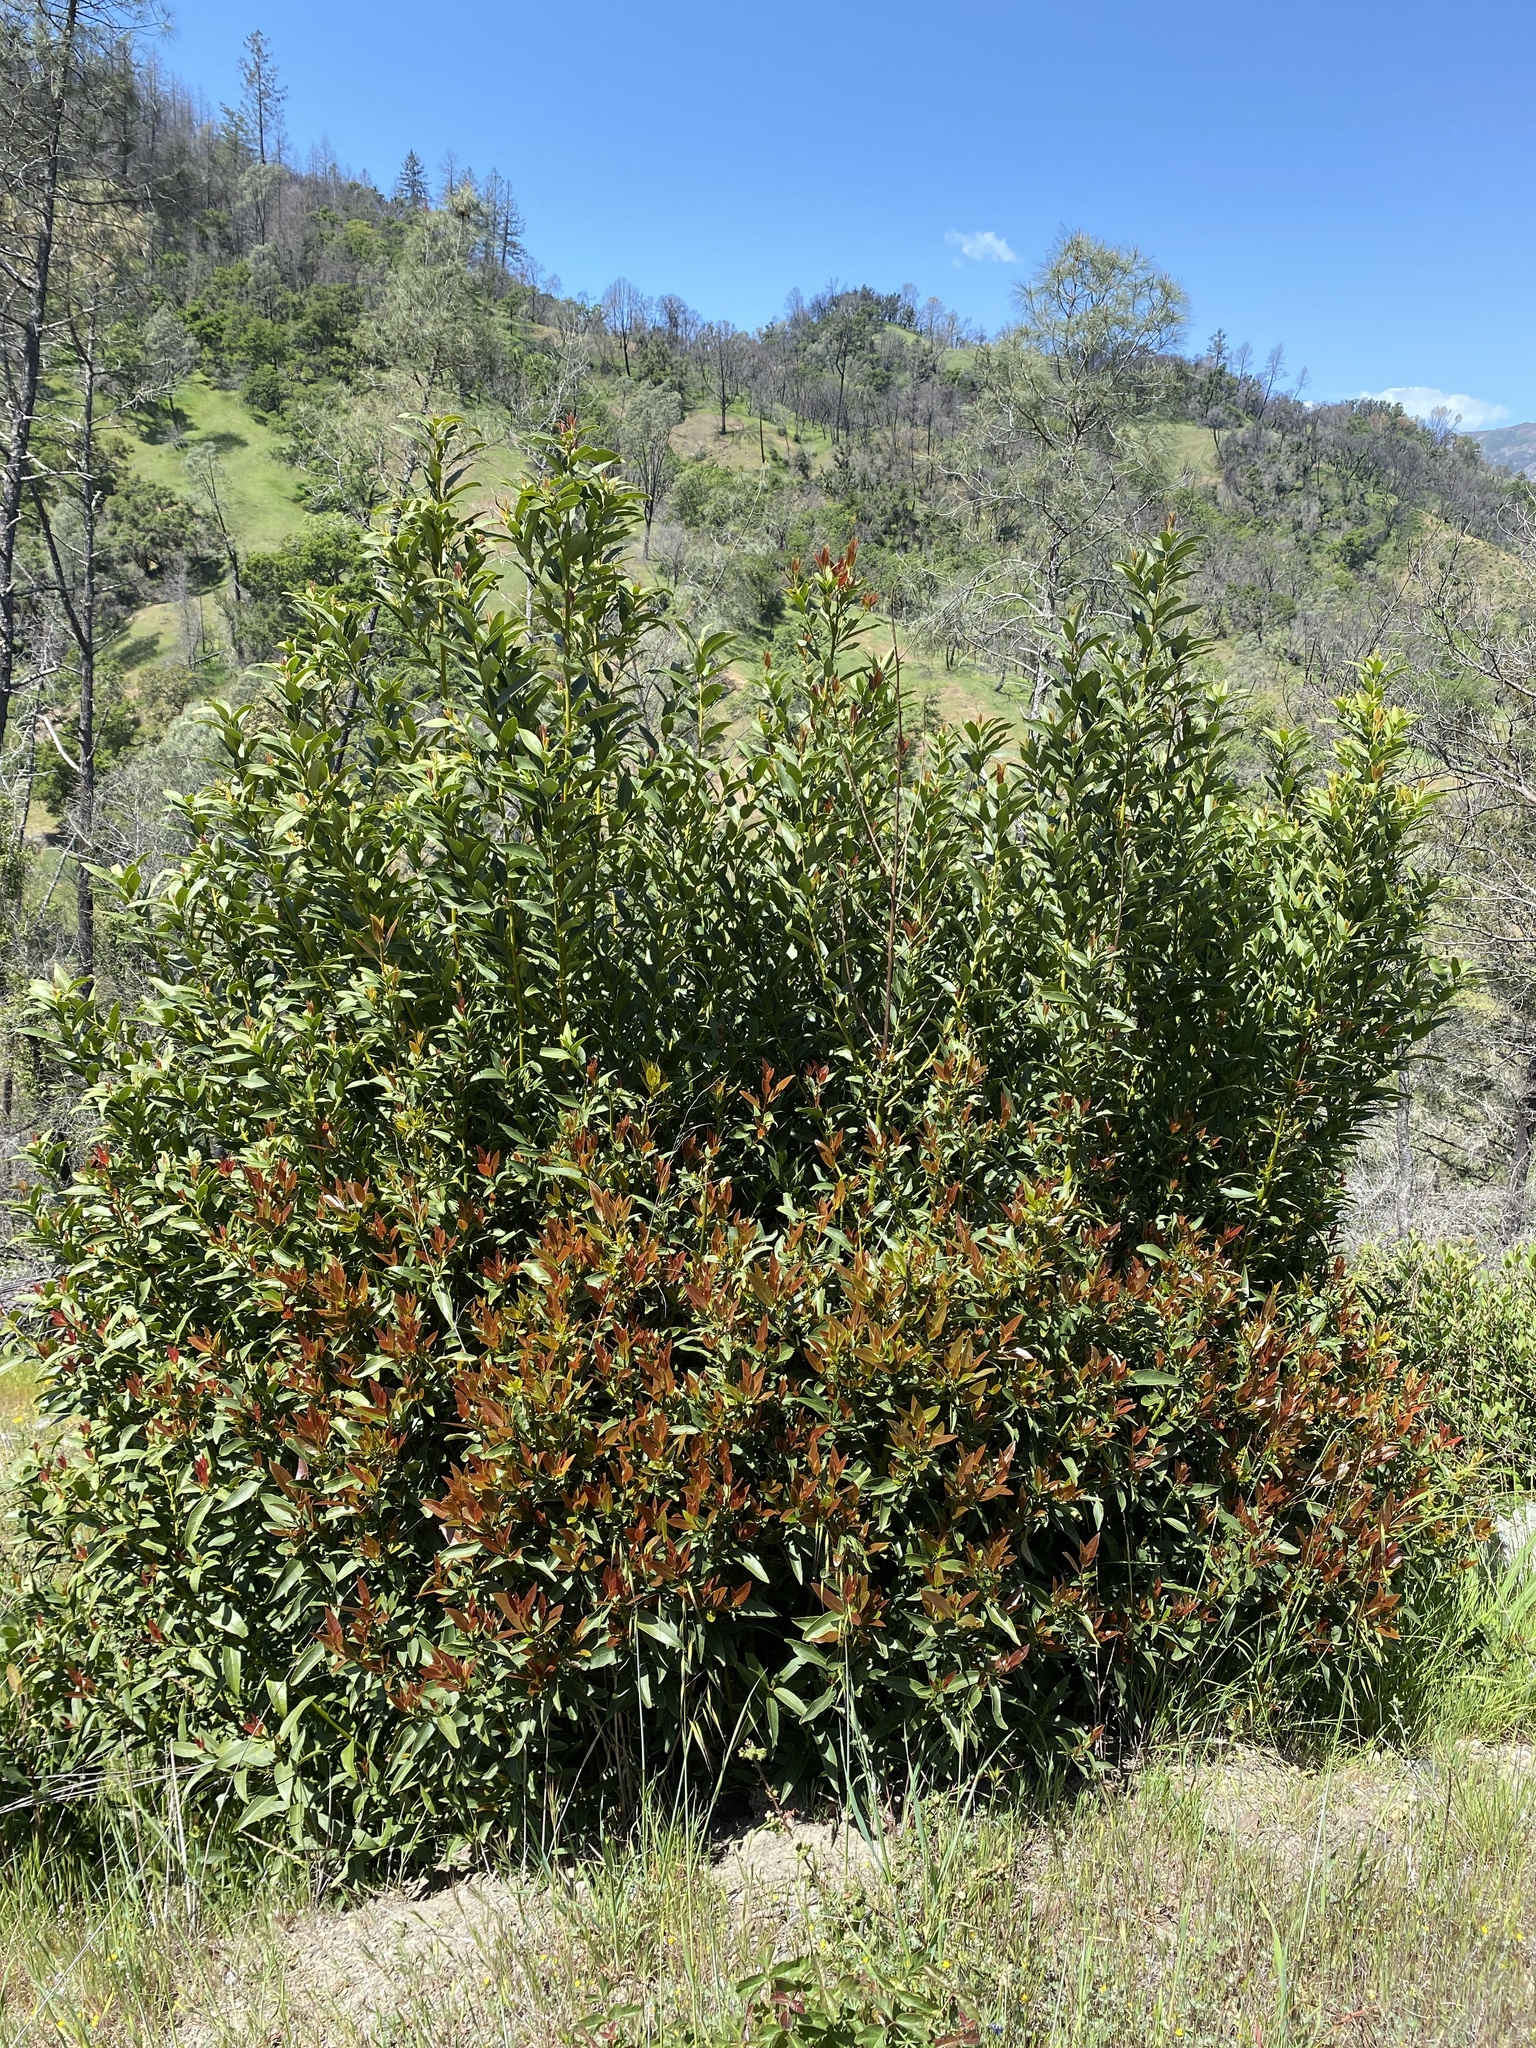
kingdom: Plantae
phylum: Tracheophyta
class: Magnoliopsida
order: Laurales
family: Lauraceae
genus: Umbellularia
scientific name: Umbellularia californica
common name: California bay
